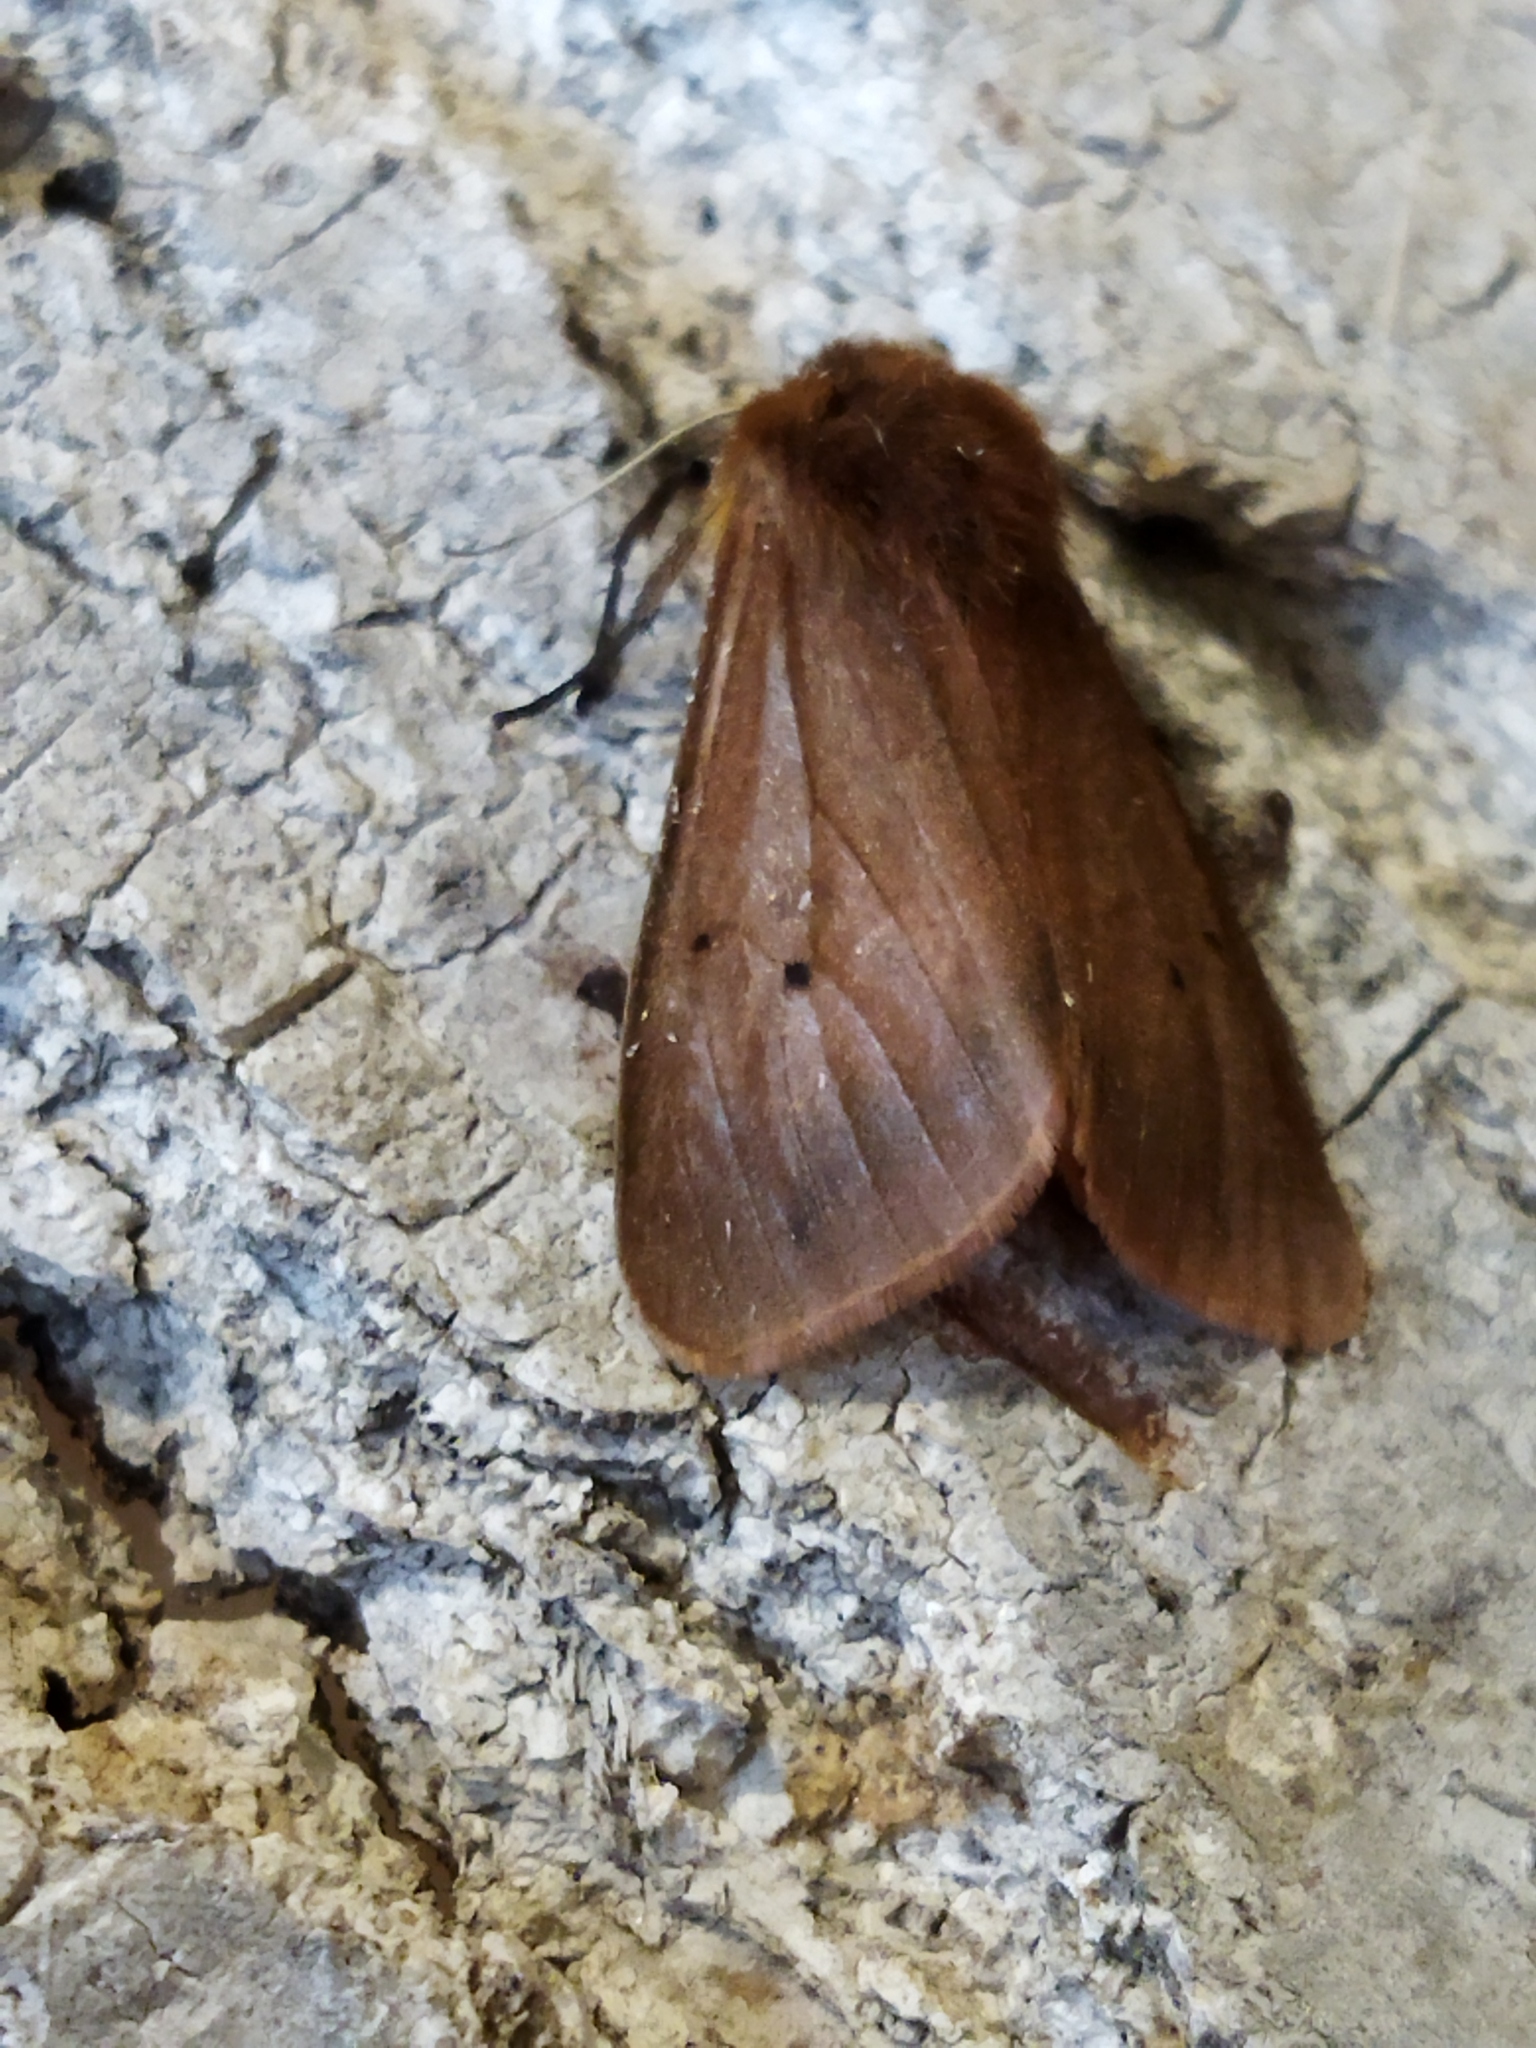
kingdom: Animalia
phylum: Arthropoda
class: Insecta
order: Lepidoptera
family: Erebidae
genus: Phragmatobia
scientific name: Phragmatobia fuliginosa
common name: Ruby tiger
